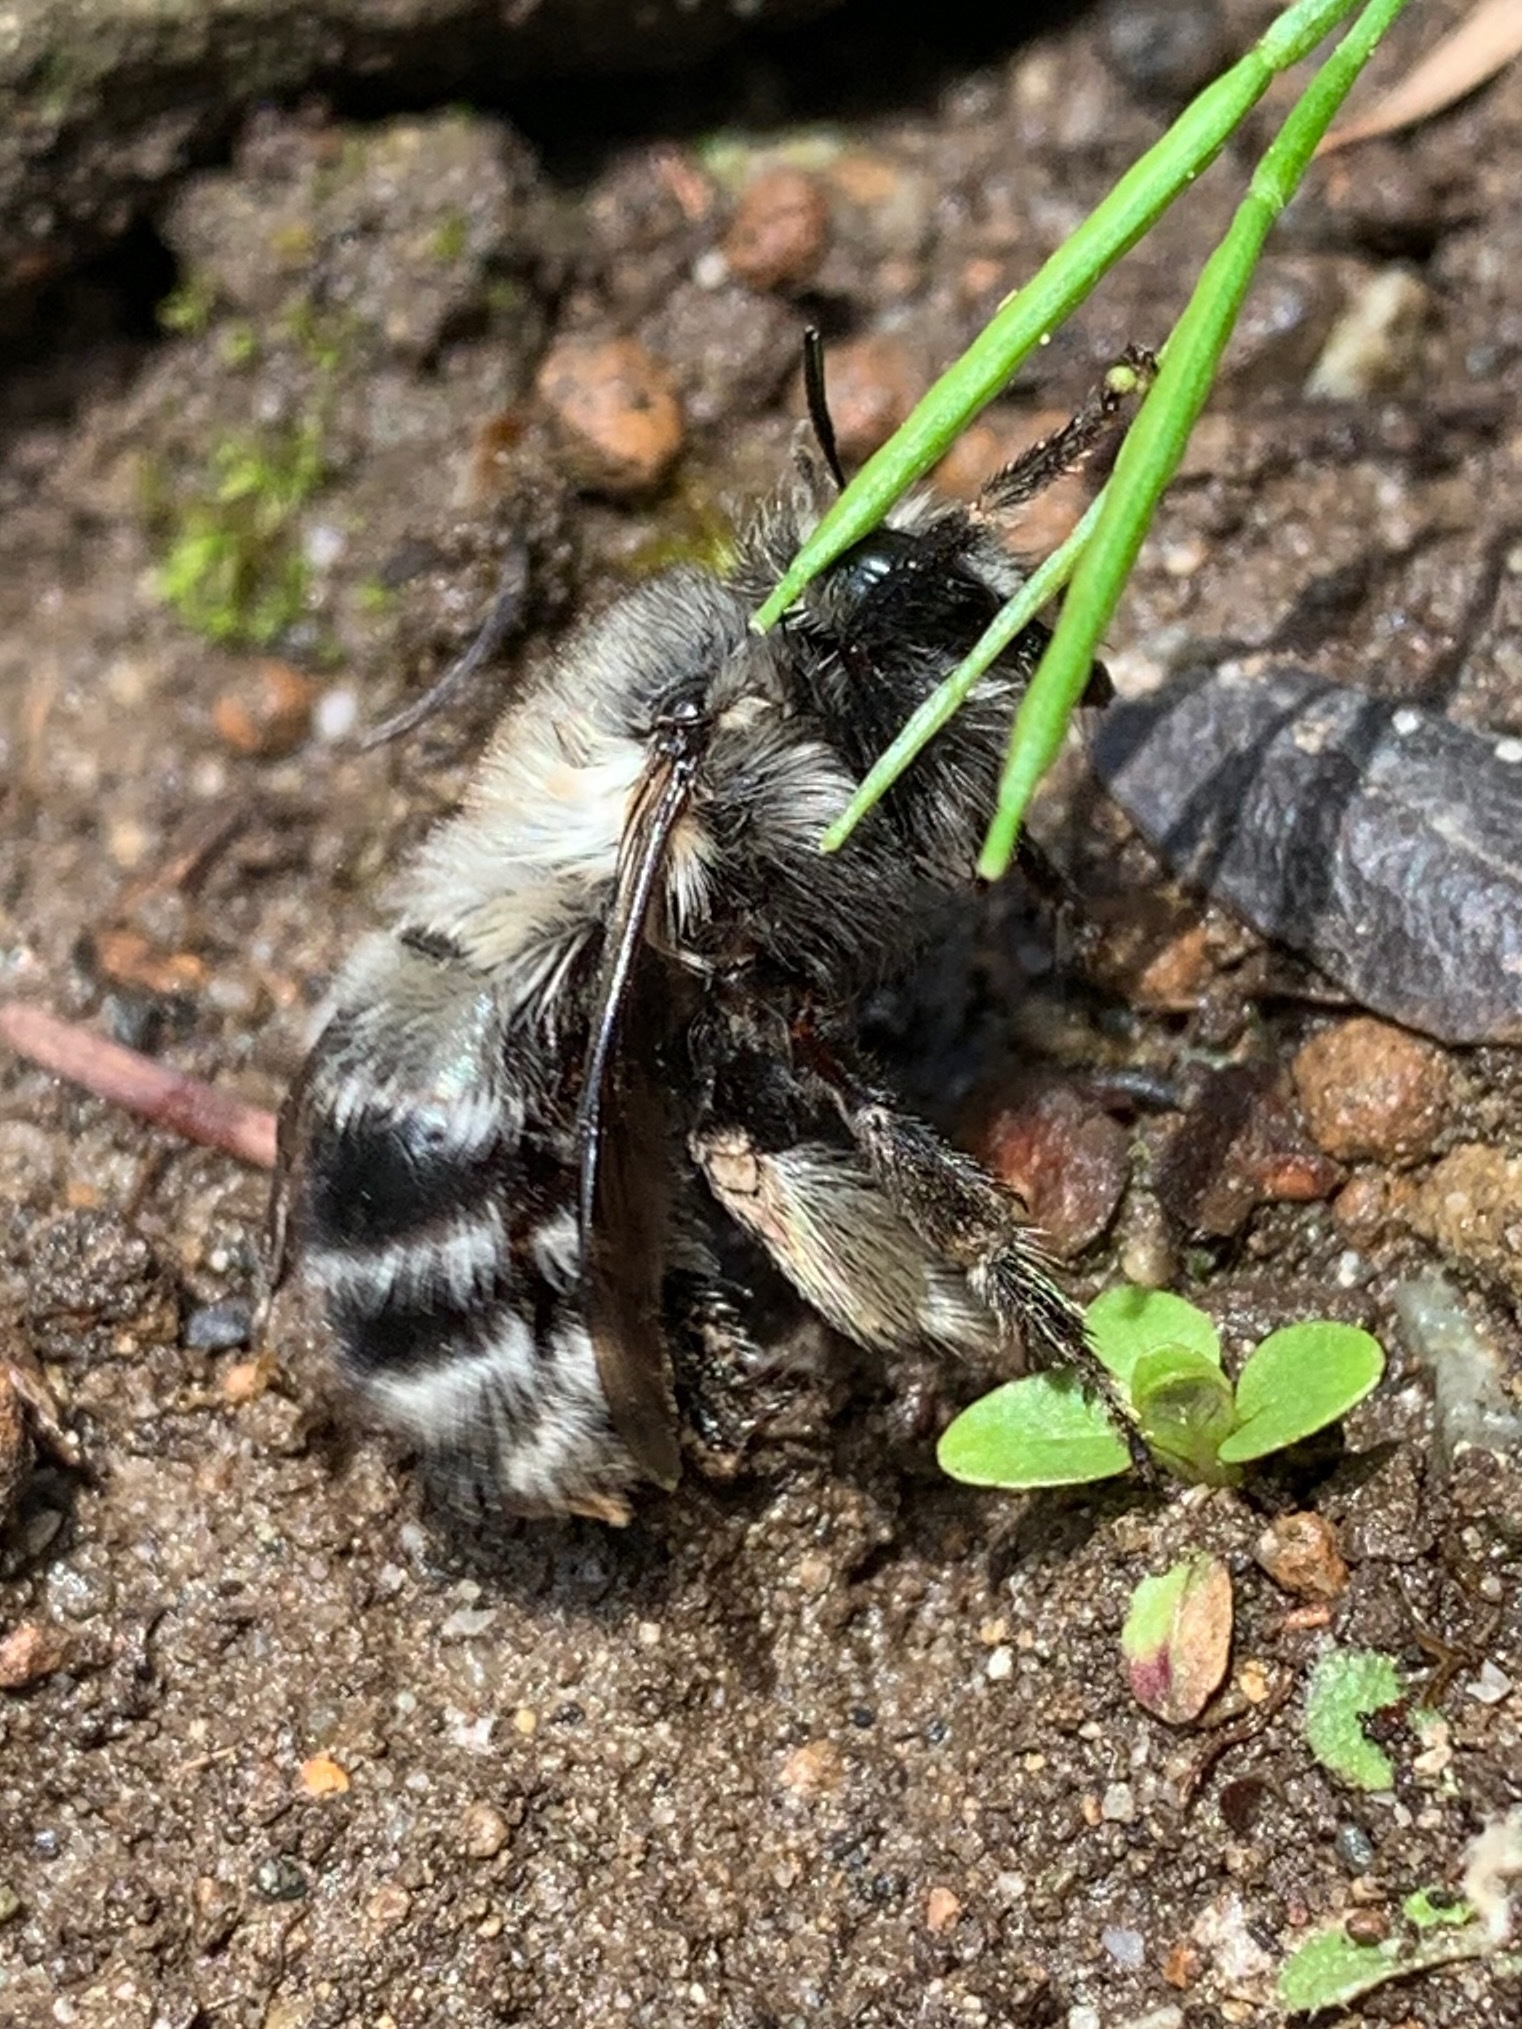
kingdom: Animalia
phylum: Arthropoda
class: Insecta
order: Hymenoptera
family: Apidae
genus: Anthophora
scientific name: Anthophora pacifica
